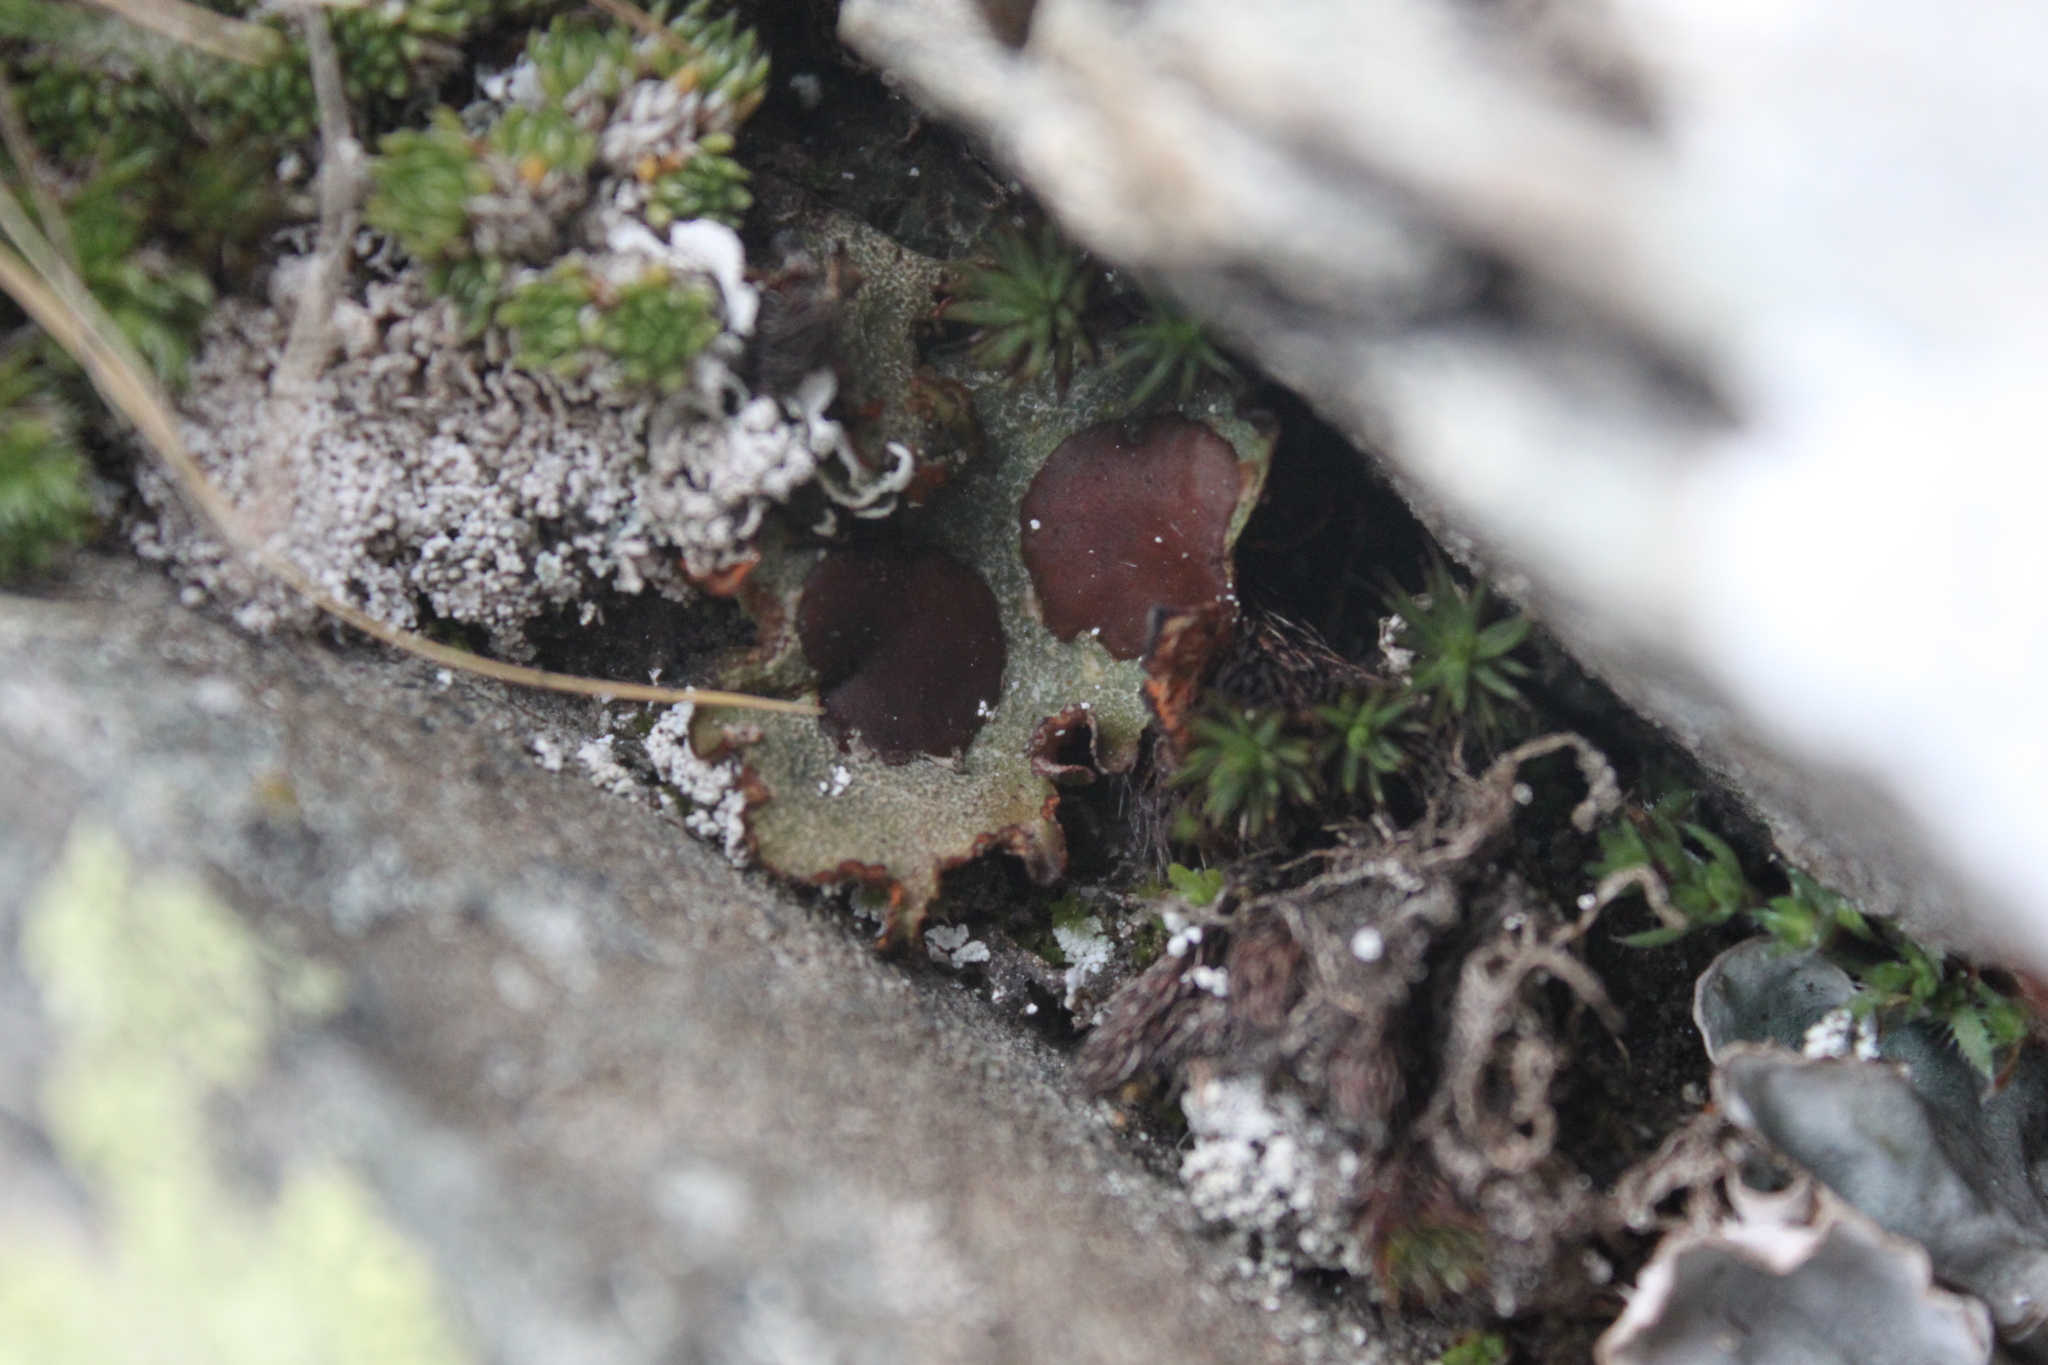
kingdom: Fungi
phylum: Ascomycota
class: Lecanoromycetes
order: Peltigerales
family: Peltigeraceae
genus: Solorina
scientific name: Solorina crocea
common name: Mountain saffron
